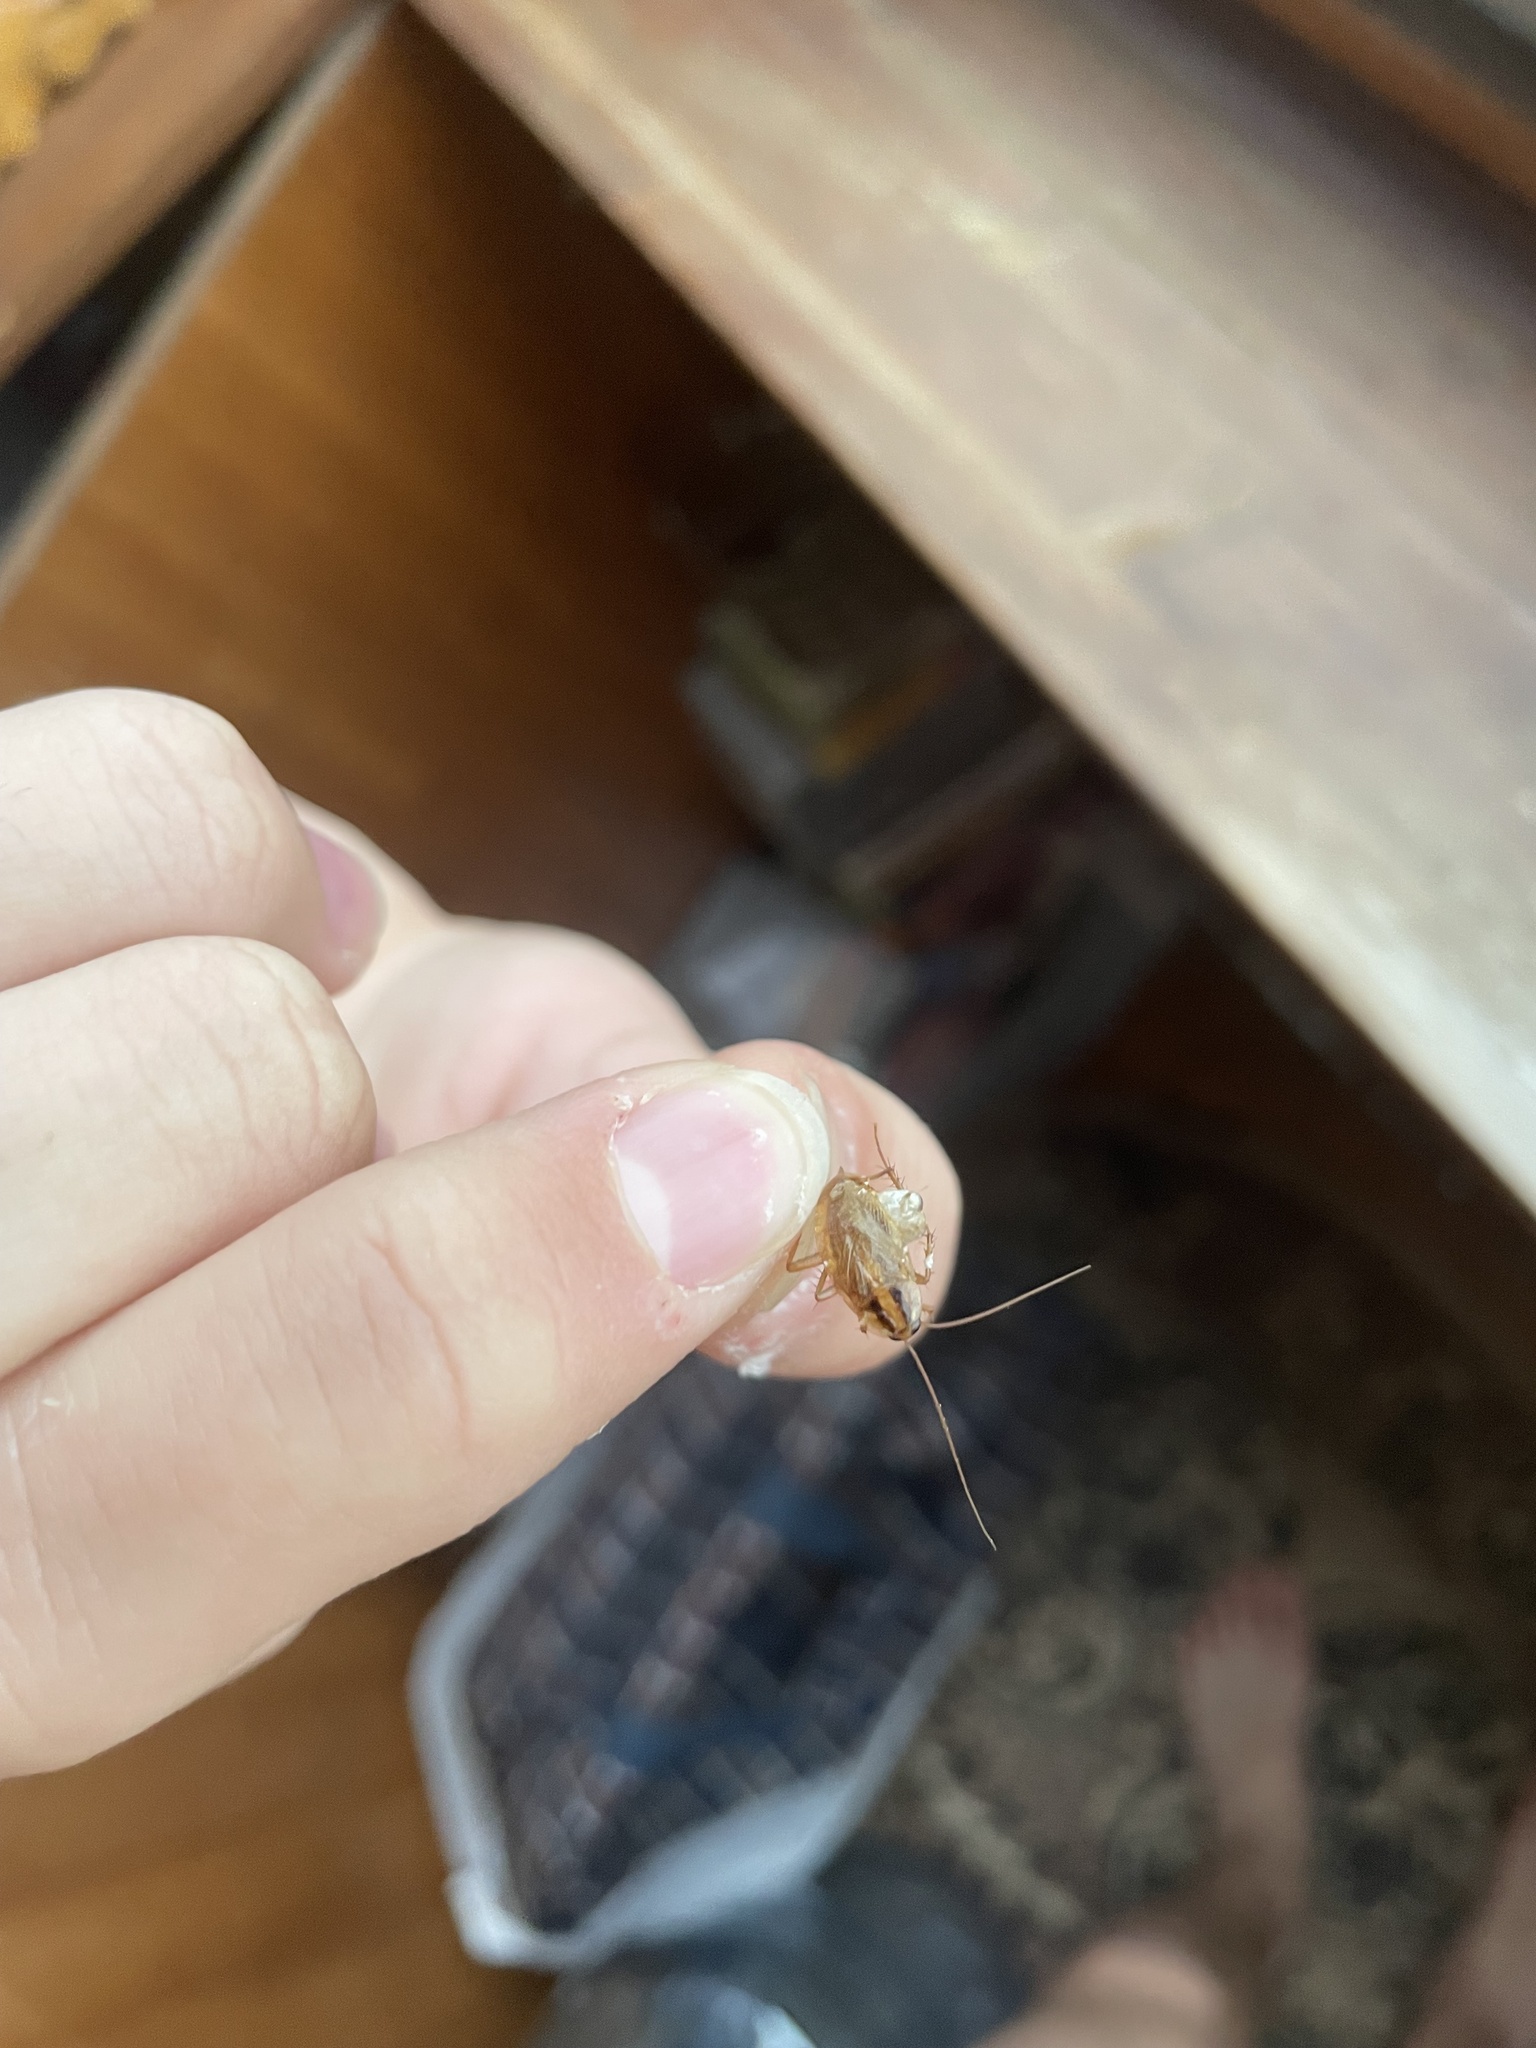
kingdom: Animalia
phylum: Arthropoda
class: Insecta
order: Blattodea
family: Ectobiidae
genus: Blattella
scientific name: Blattella germanica
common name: German cockroach
